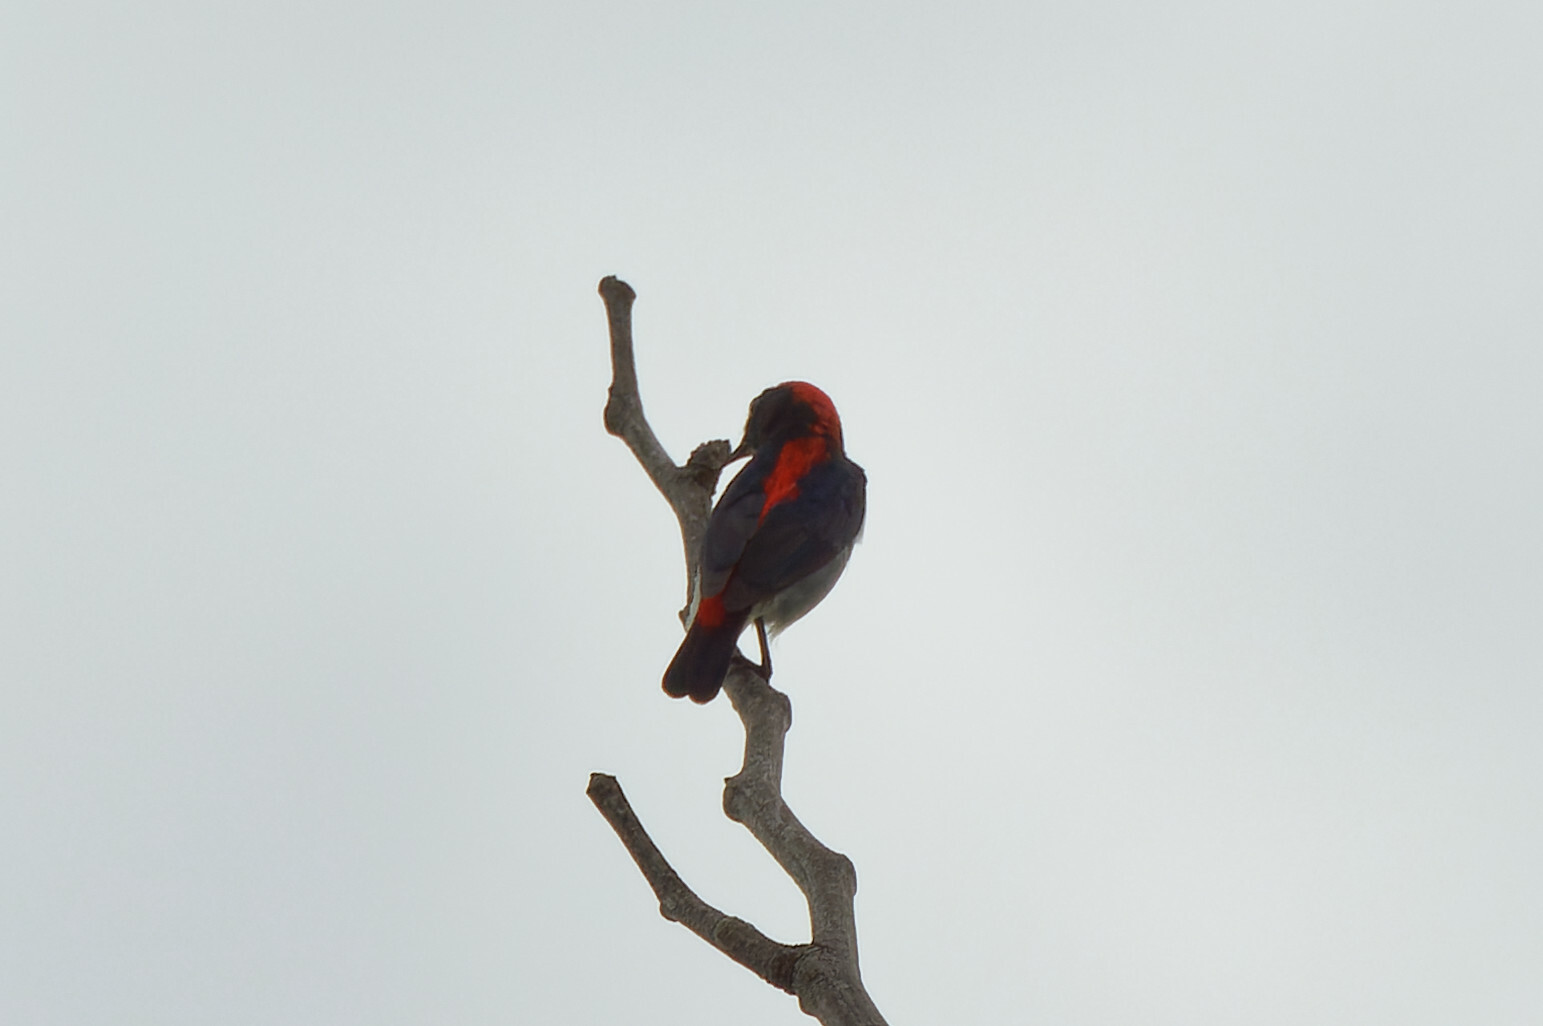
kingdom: Animalia
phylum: Chordata
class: Aves
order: Passeriformes
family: Dicaeidae
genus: Dicaeum
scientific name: Dicaeum cruentatum
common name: Scarlet-backed flowerpecker
